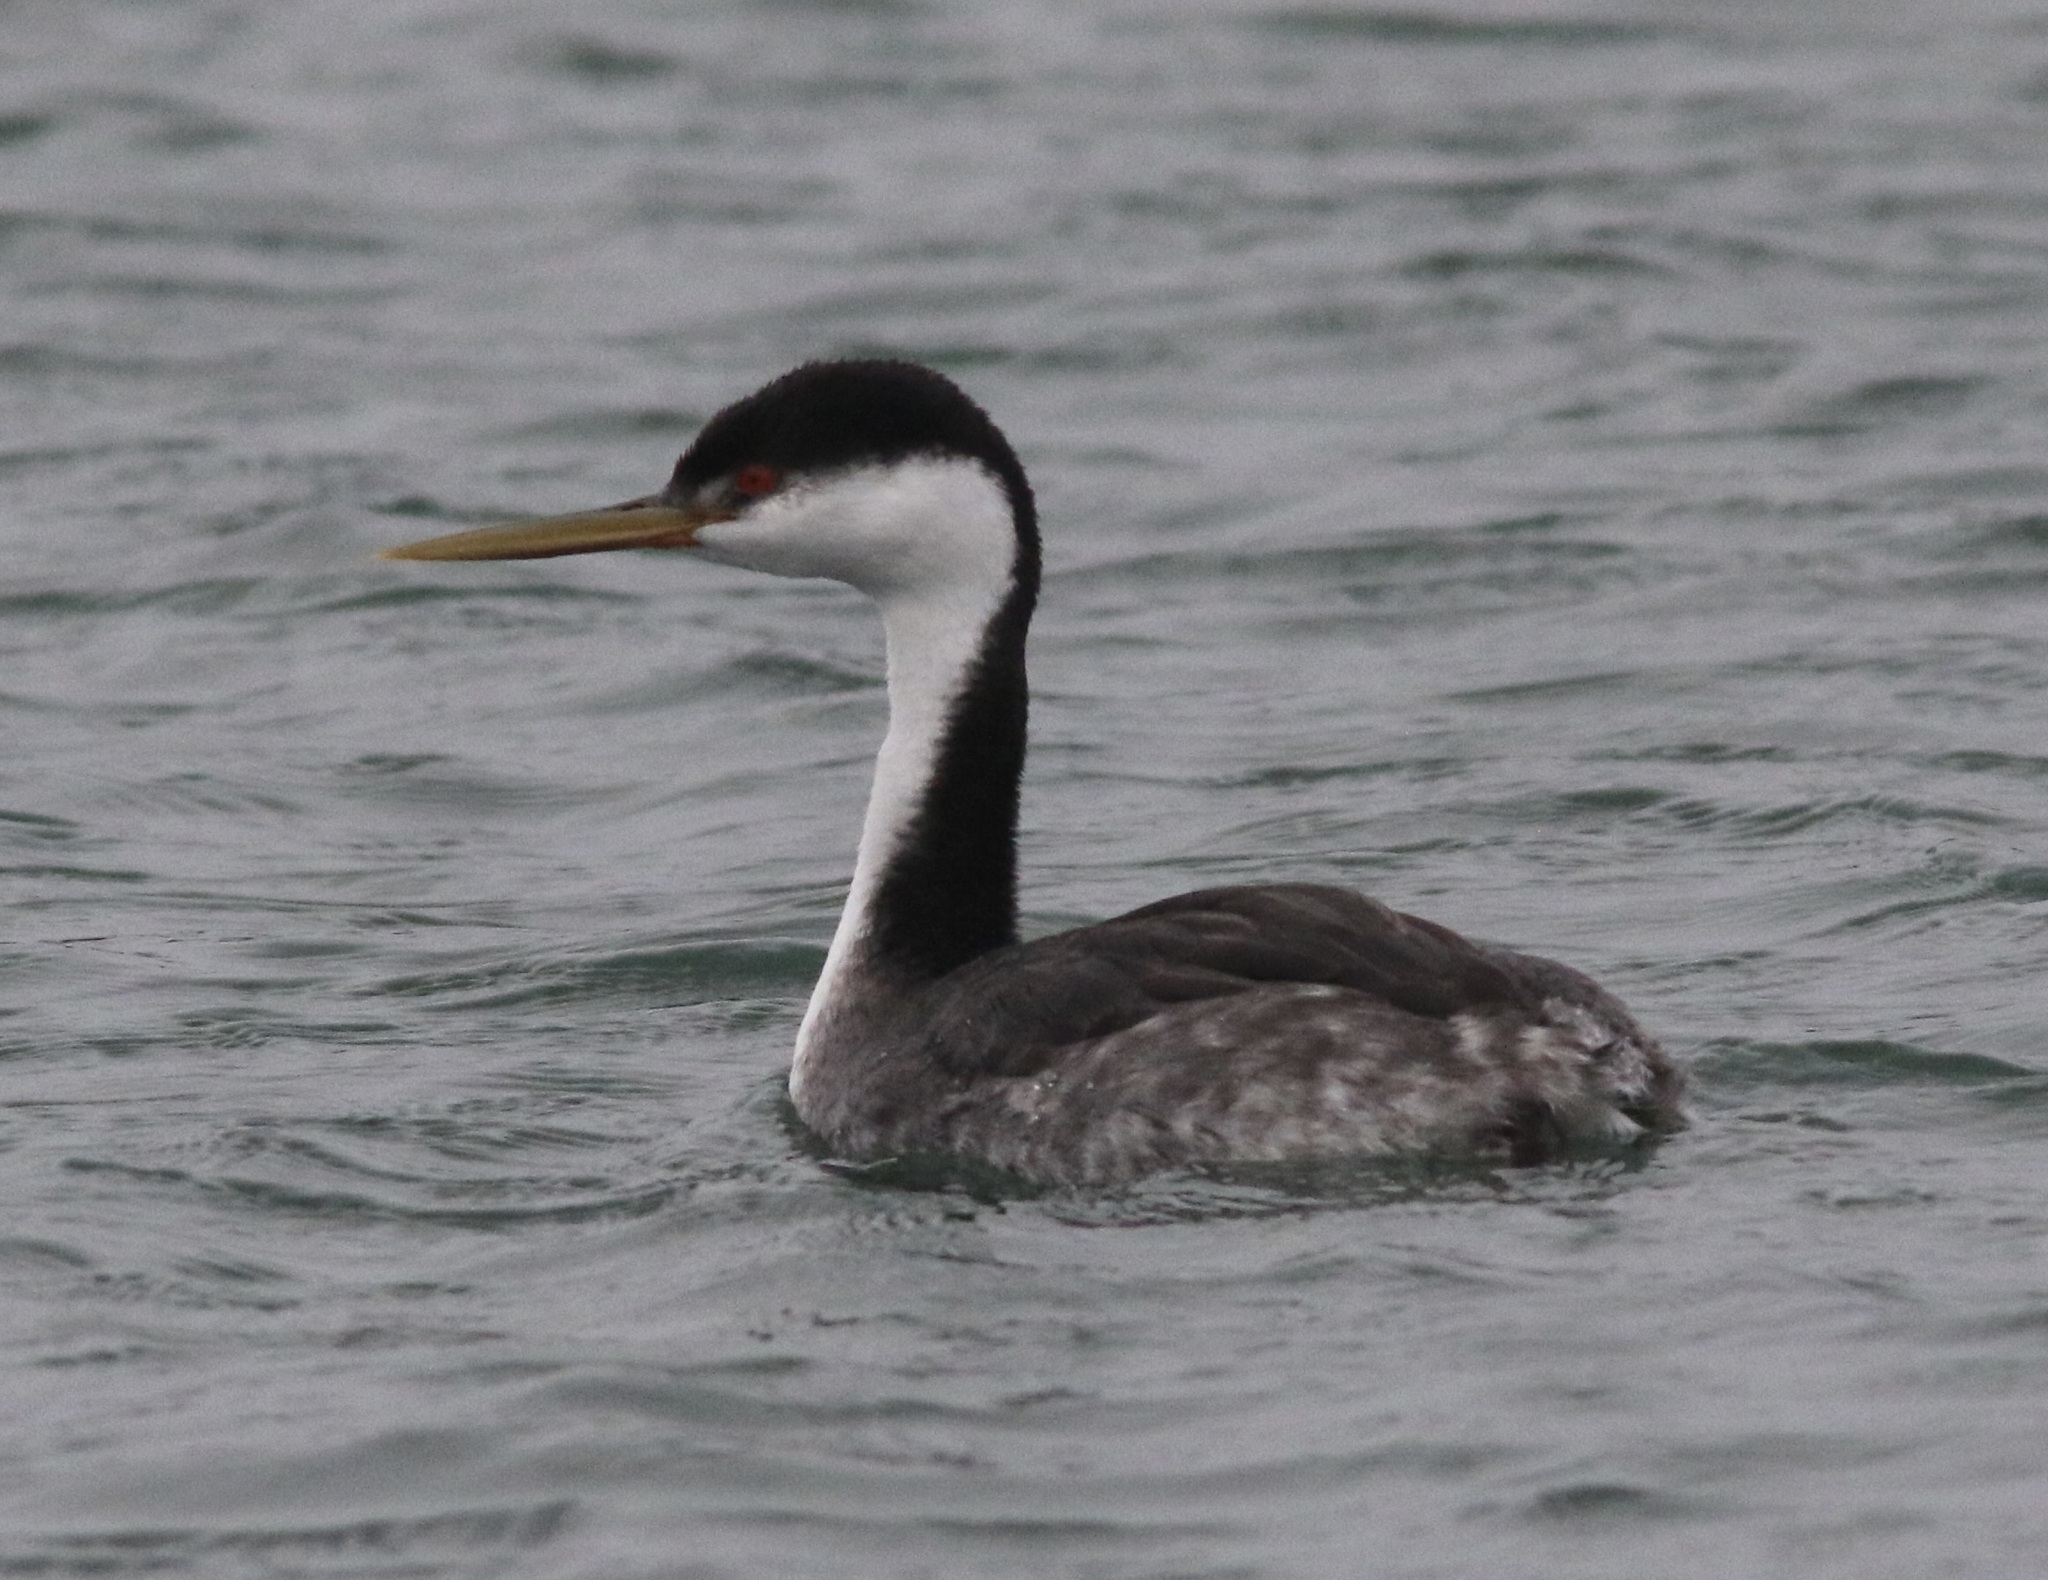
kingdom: Animalia
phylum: Chordata
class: Aves
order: Podicipediformes
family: Podicipedidae
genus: Aechmophorus
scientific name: Aechmophorus occidentalis
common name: Western grebe
